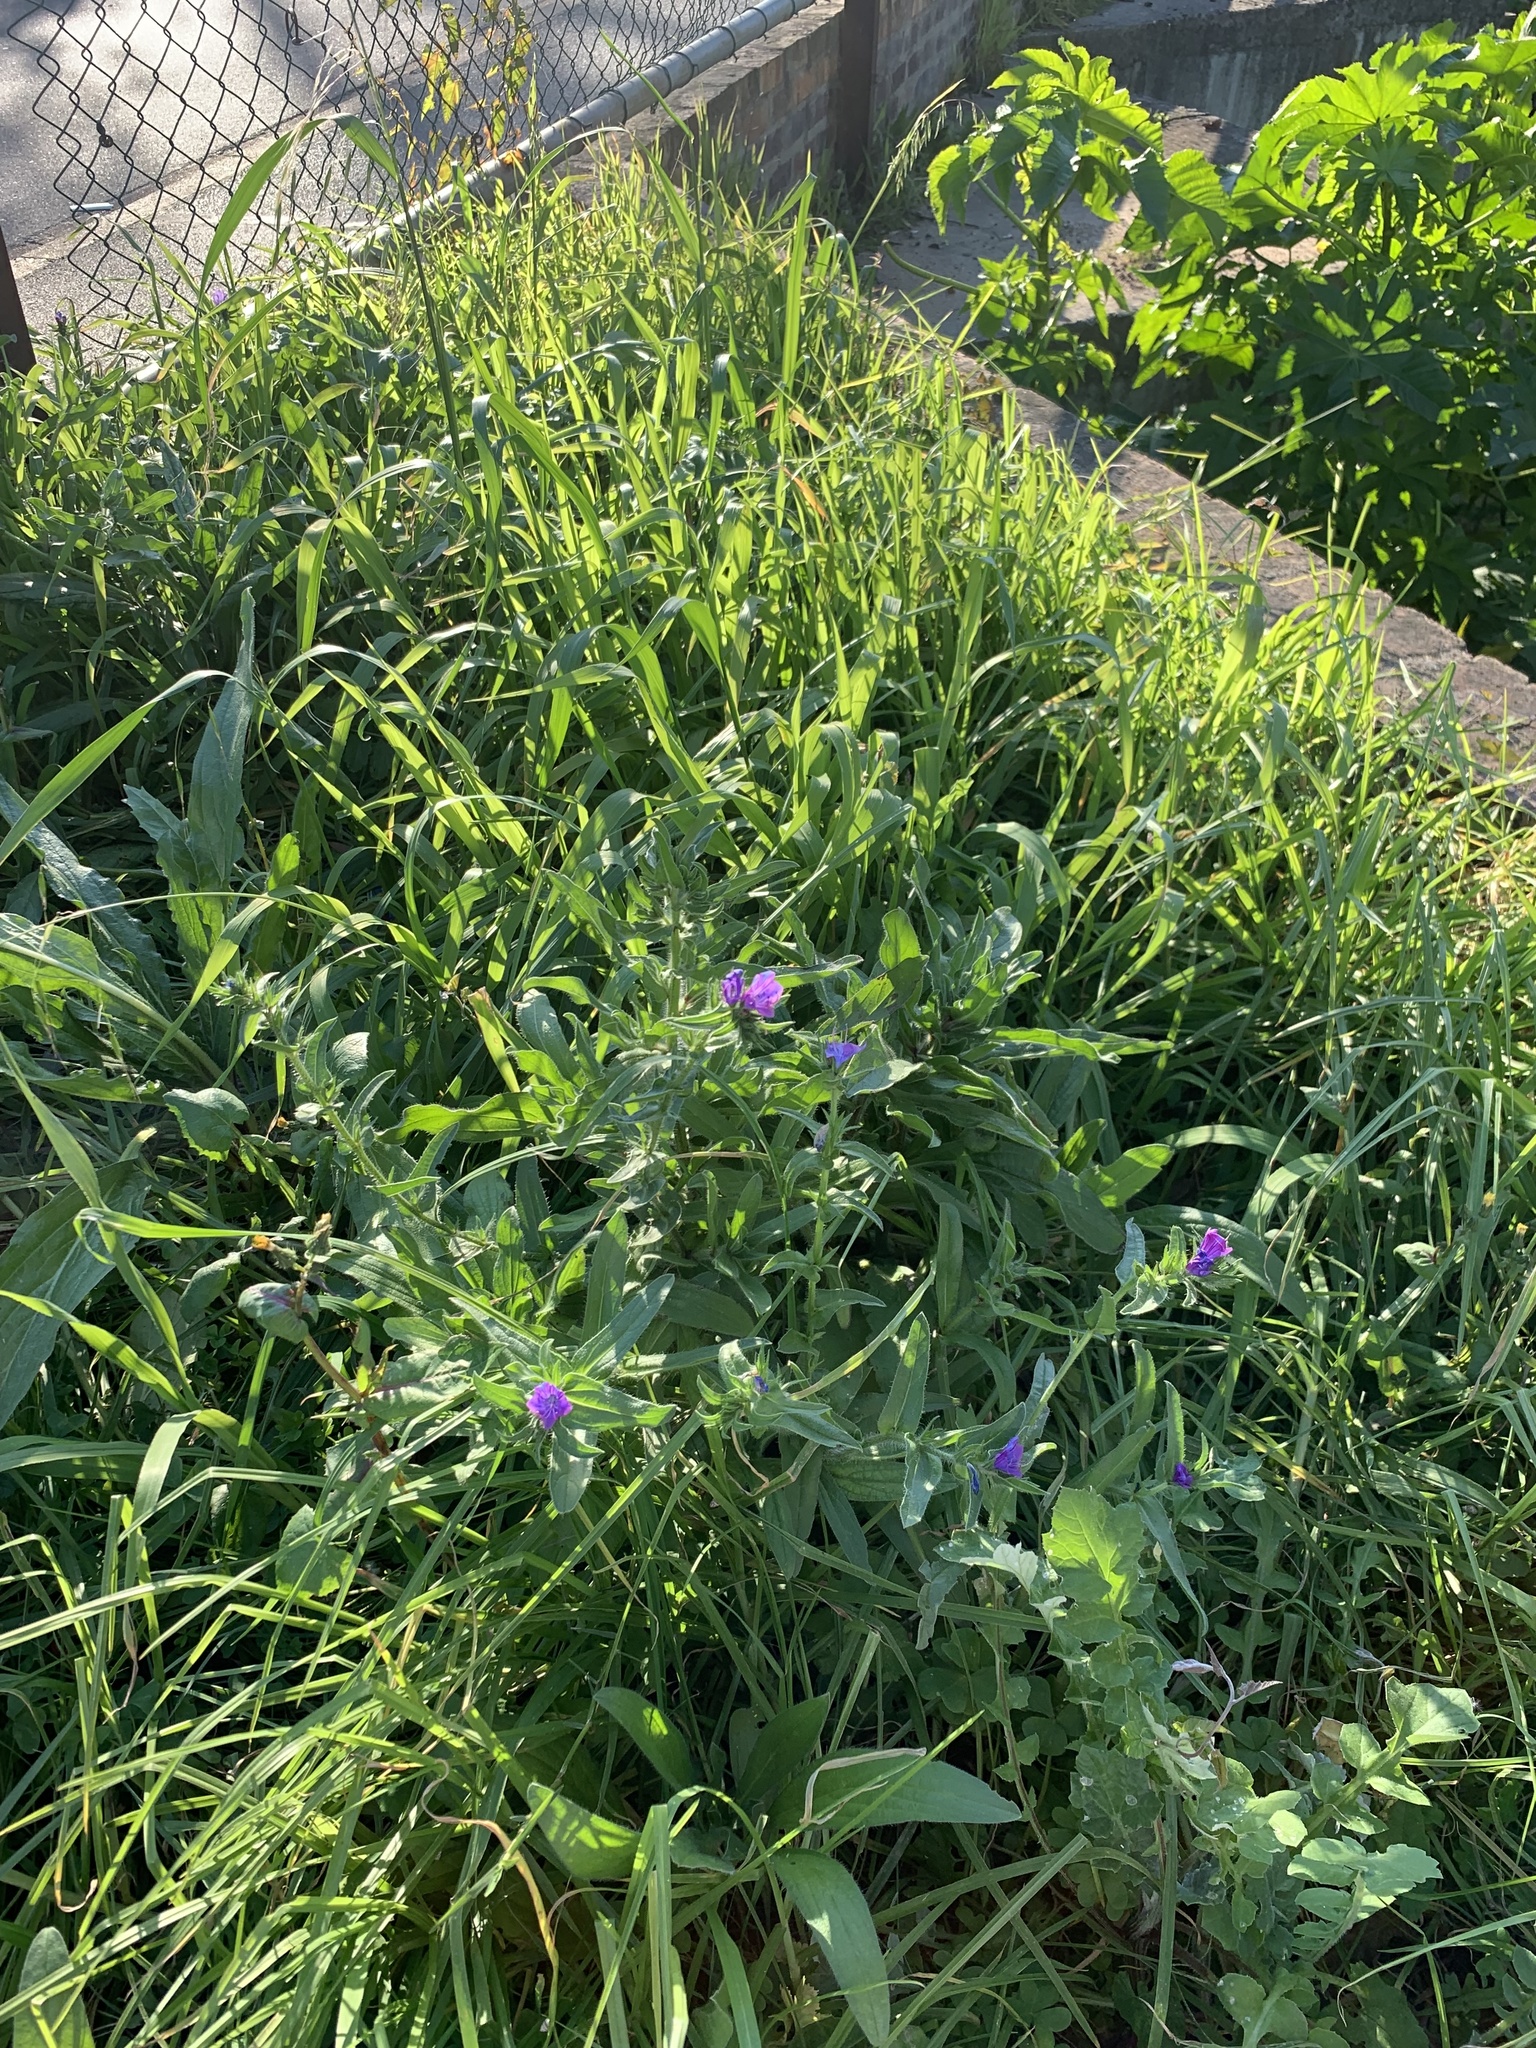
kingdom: Plantae
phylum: Tracheophyta
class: Magnoliopsida
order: Boraginales
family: Boraginaceae
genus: Echium
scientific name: Echium plantagineum
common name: Purple viper's-bugloss
